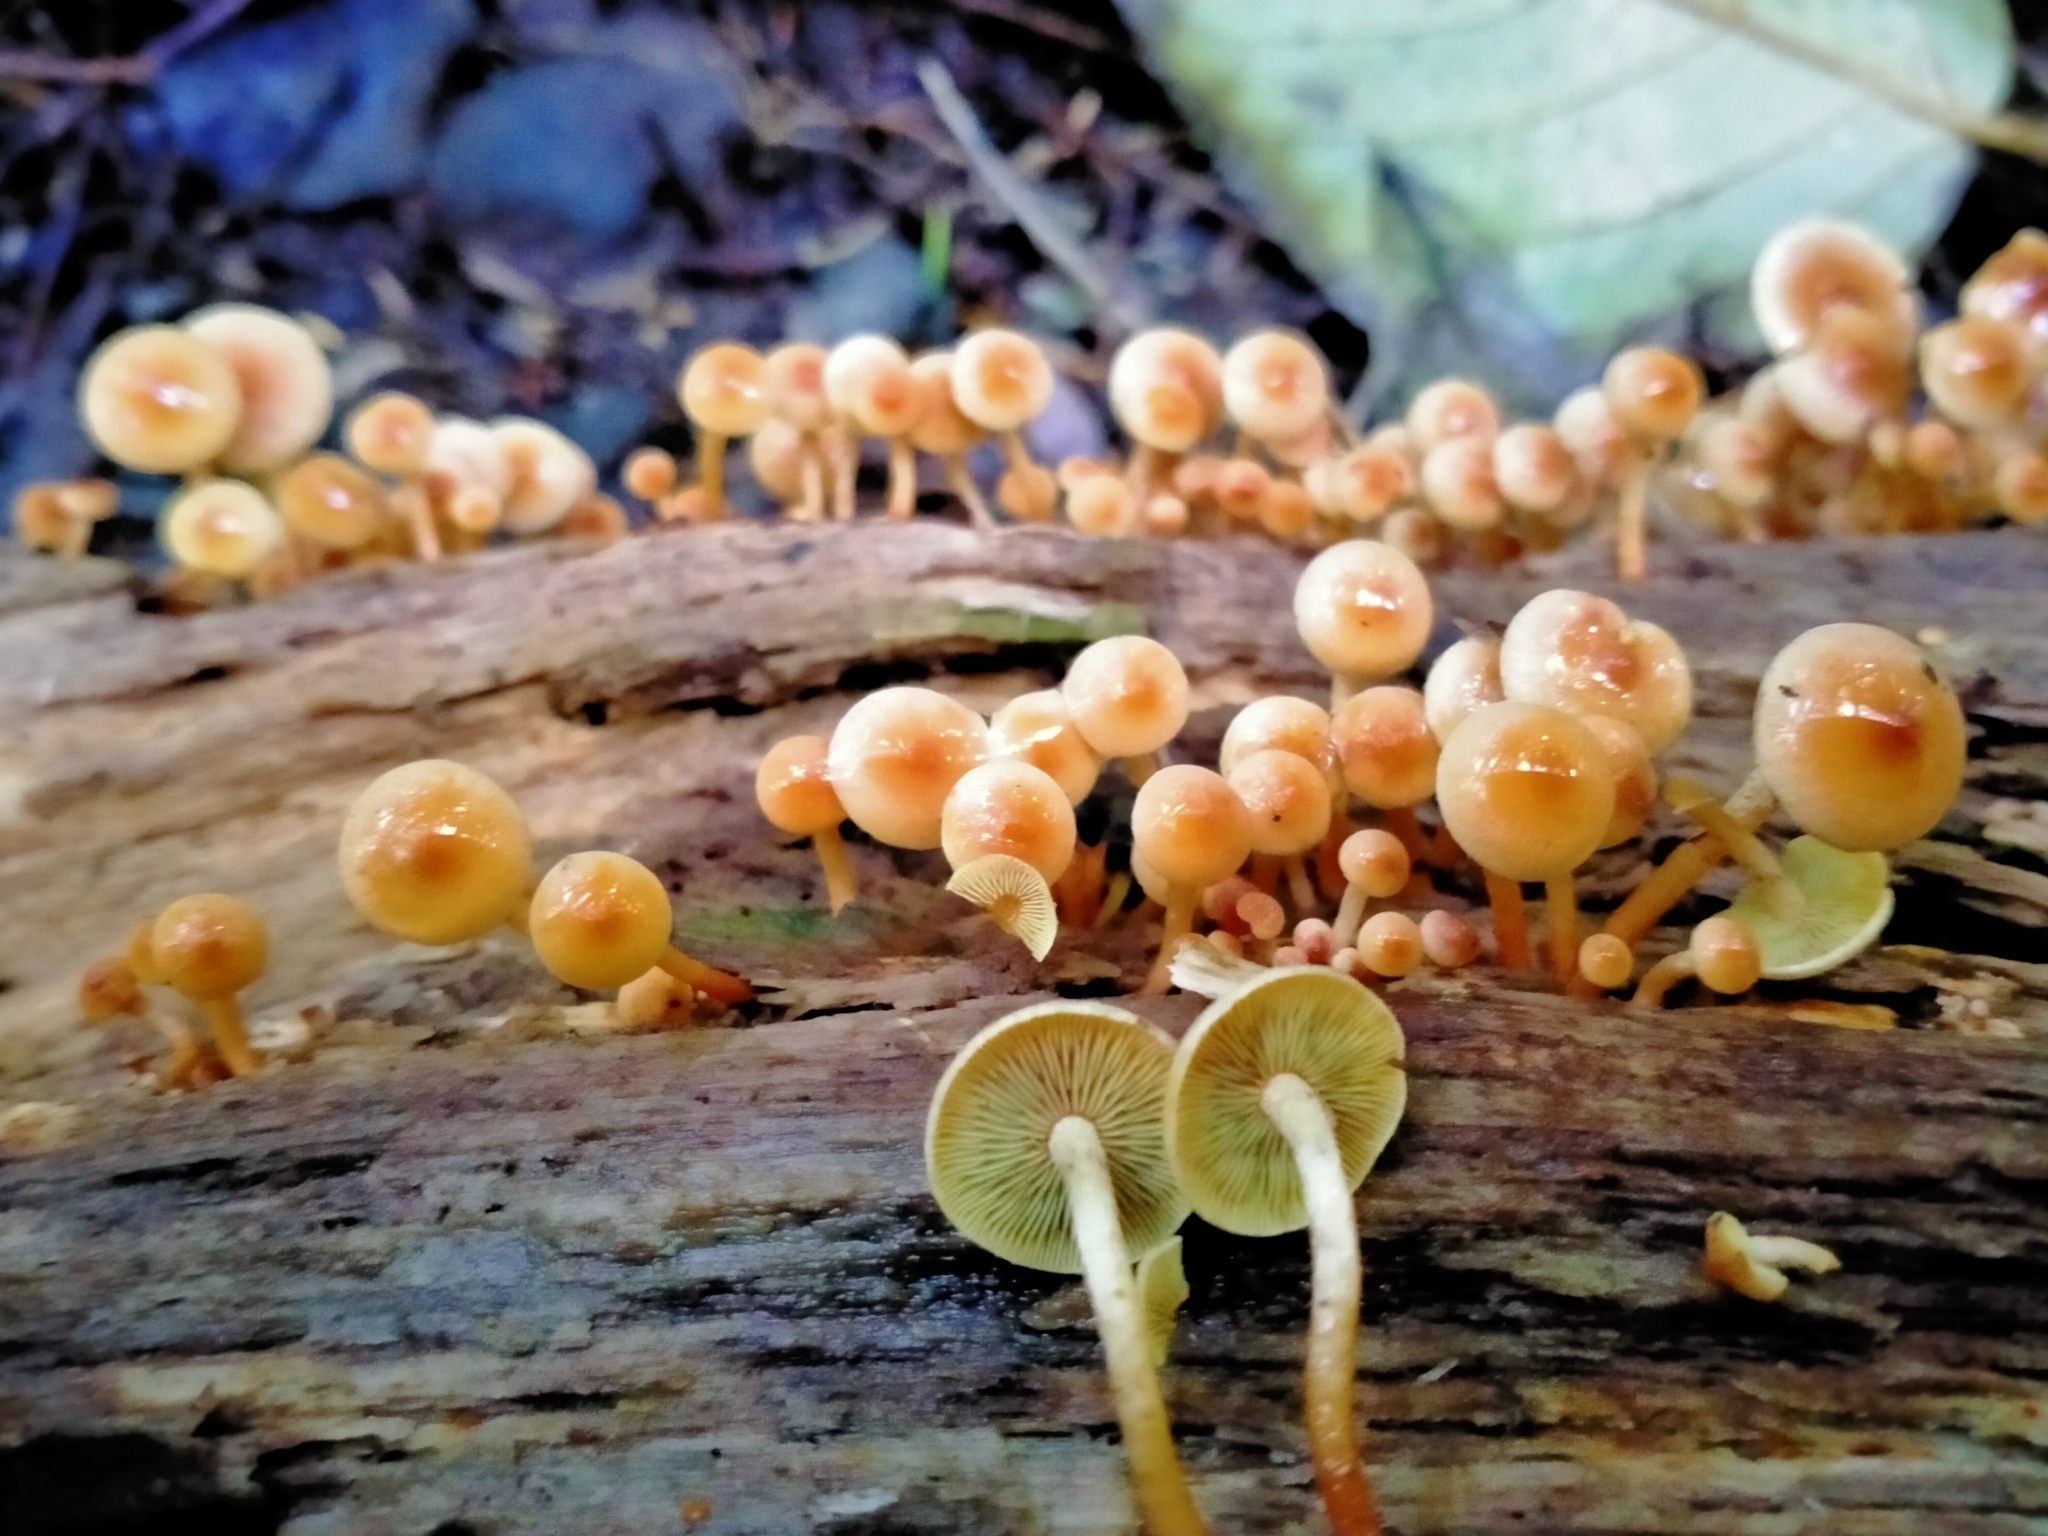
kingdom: Fungi
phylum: Basidiomycota
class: Agaricomycetes
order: Agaricales
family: Strophariaceae
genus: Hypholoma
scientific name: Hypholoma acutum
